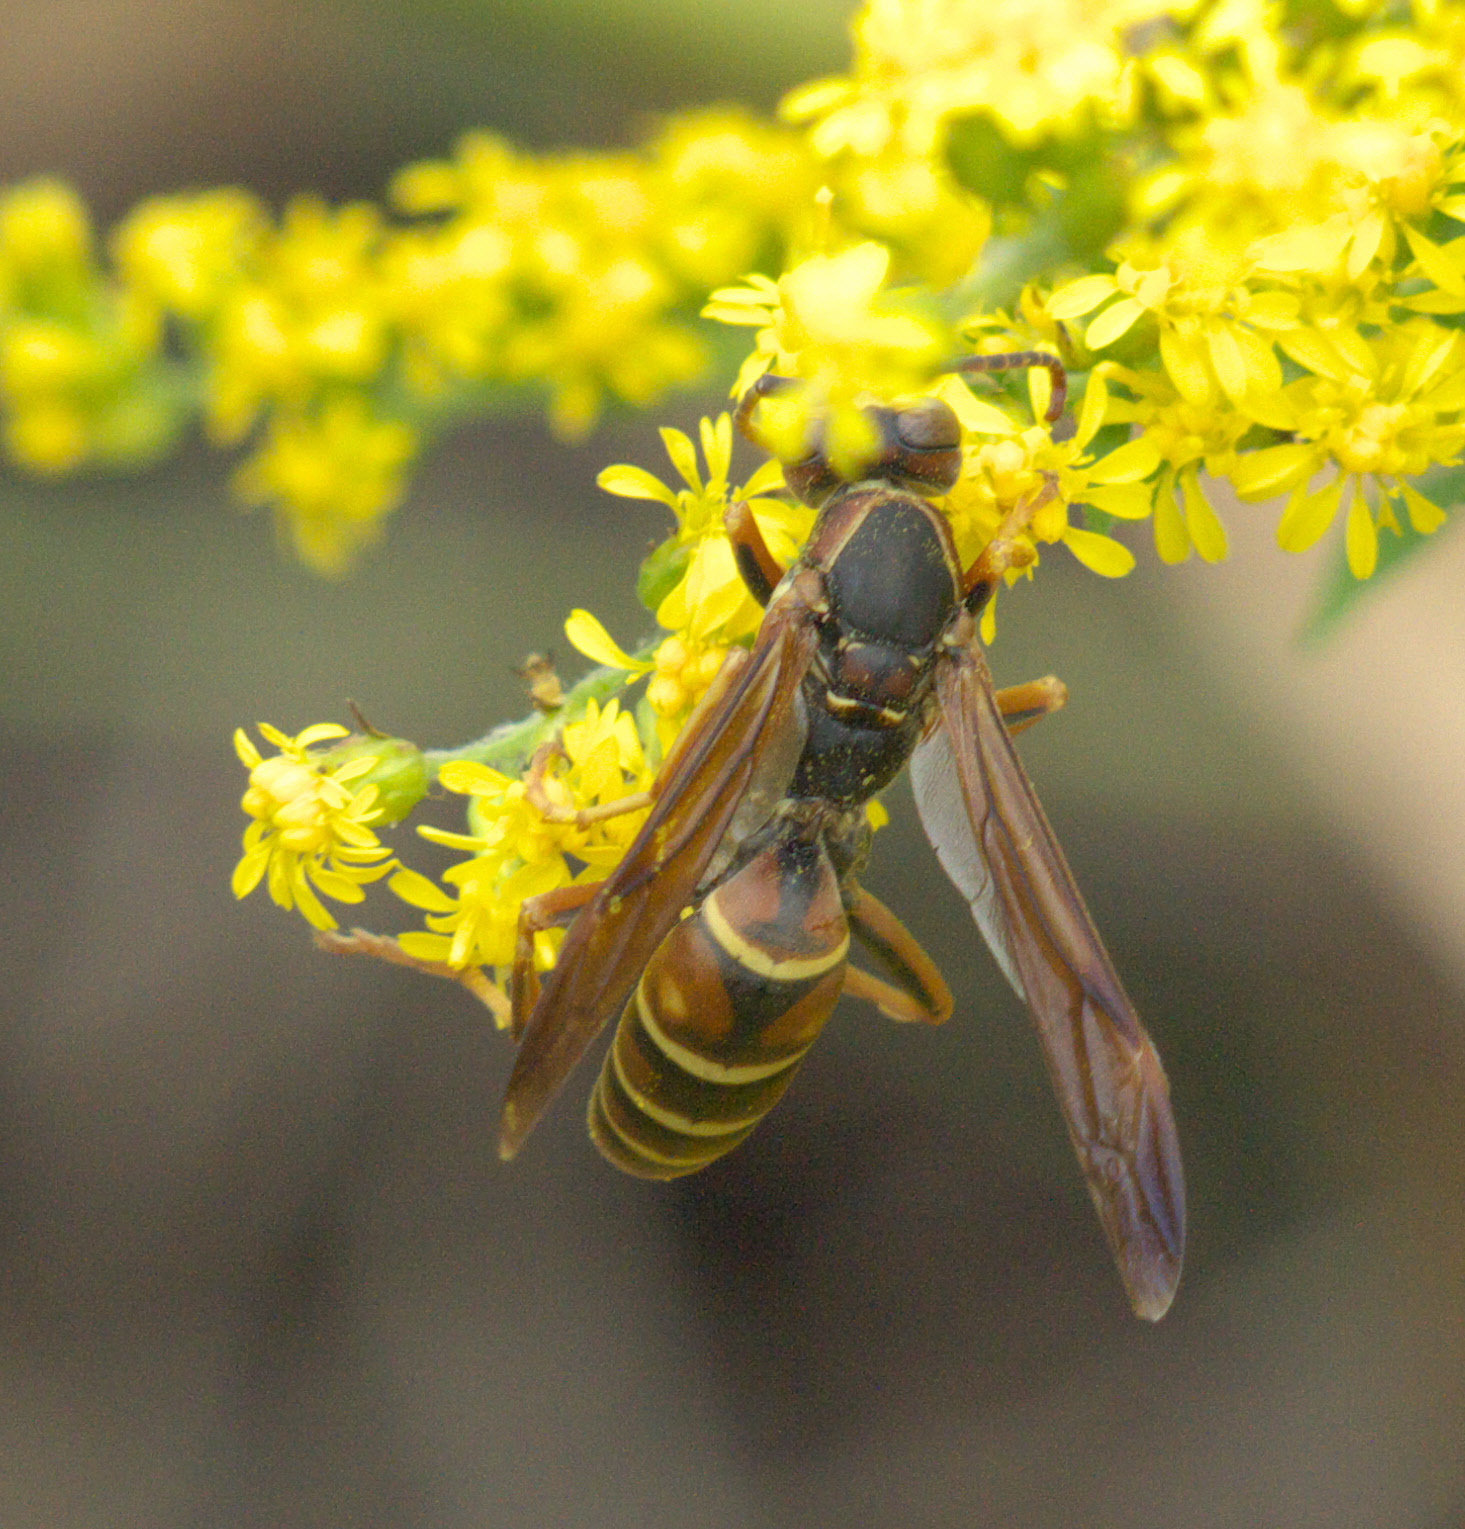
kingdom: Animalia
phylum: Arthropoda
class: Insecta
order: Hymenoptera
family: Eumenidae
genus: Polistes
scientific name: Polistes bellicosus
